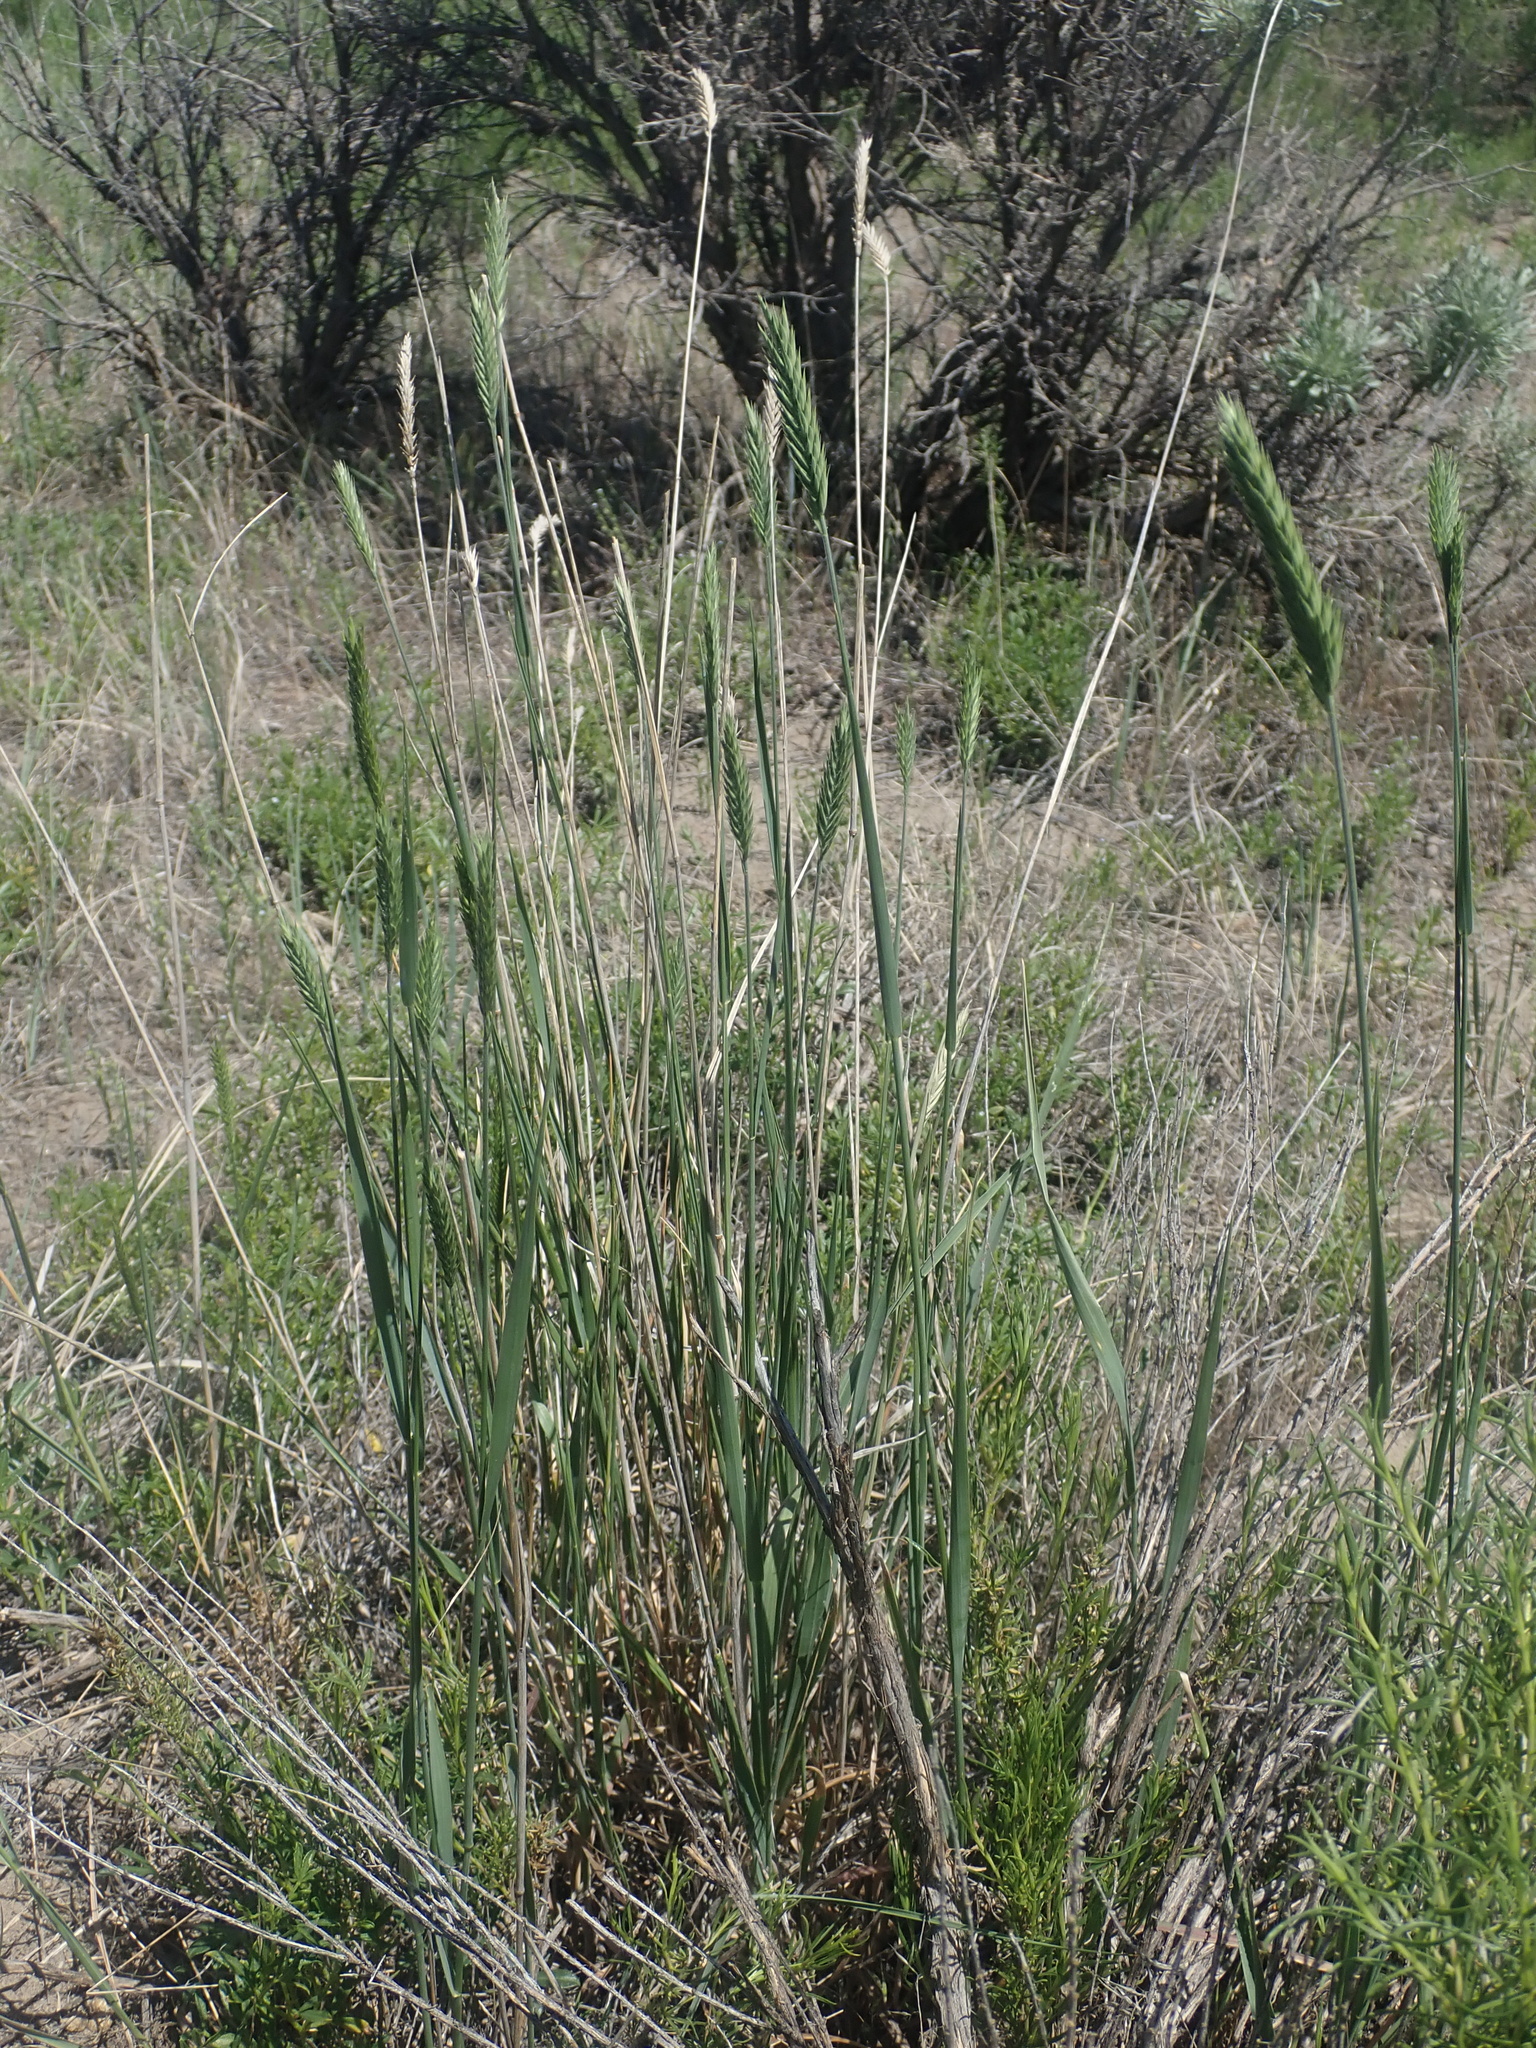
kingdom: Plantae
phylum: Tracheophyta
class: Liliopsida
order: Poales
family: Poaceae
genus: Agropyron
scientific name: Agropyron cristatum
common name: Crested wheatgrass
